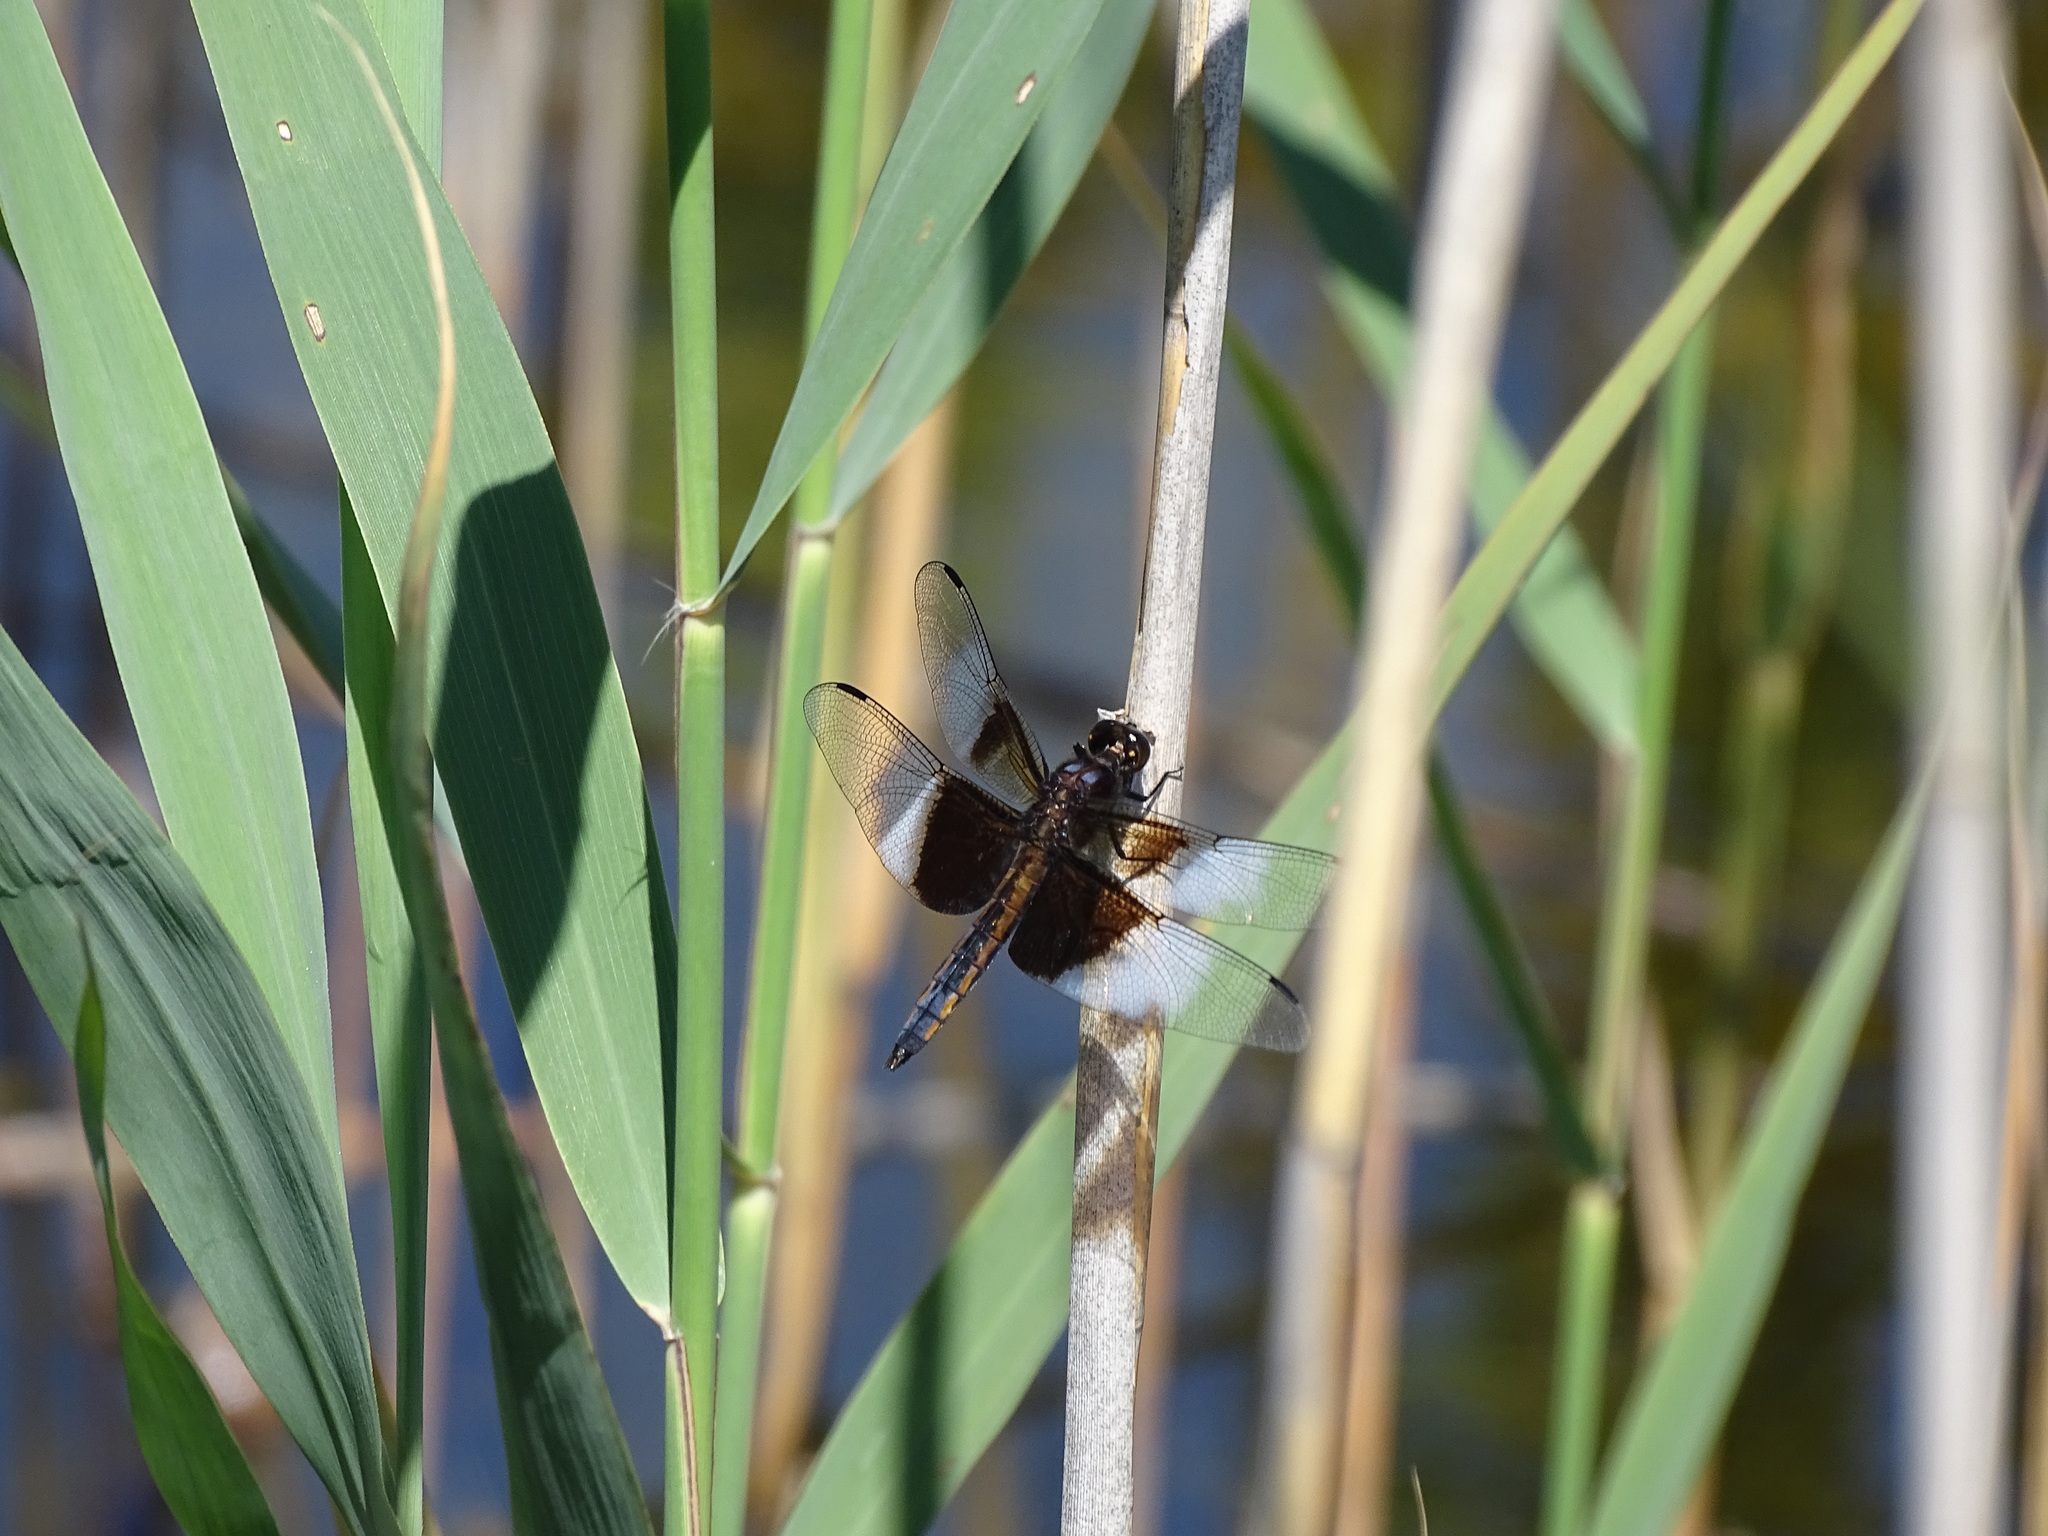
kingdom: Animalia
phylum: Arthropoda
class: Insecta
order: Odonata
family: Libellulidae
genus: Libellula
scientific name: Libellula luctuosa
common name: Widow skimmer
